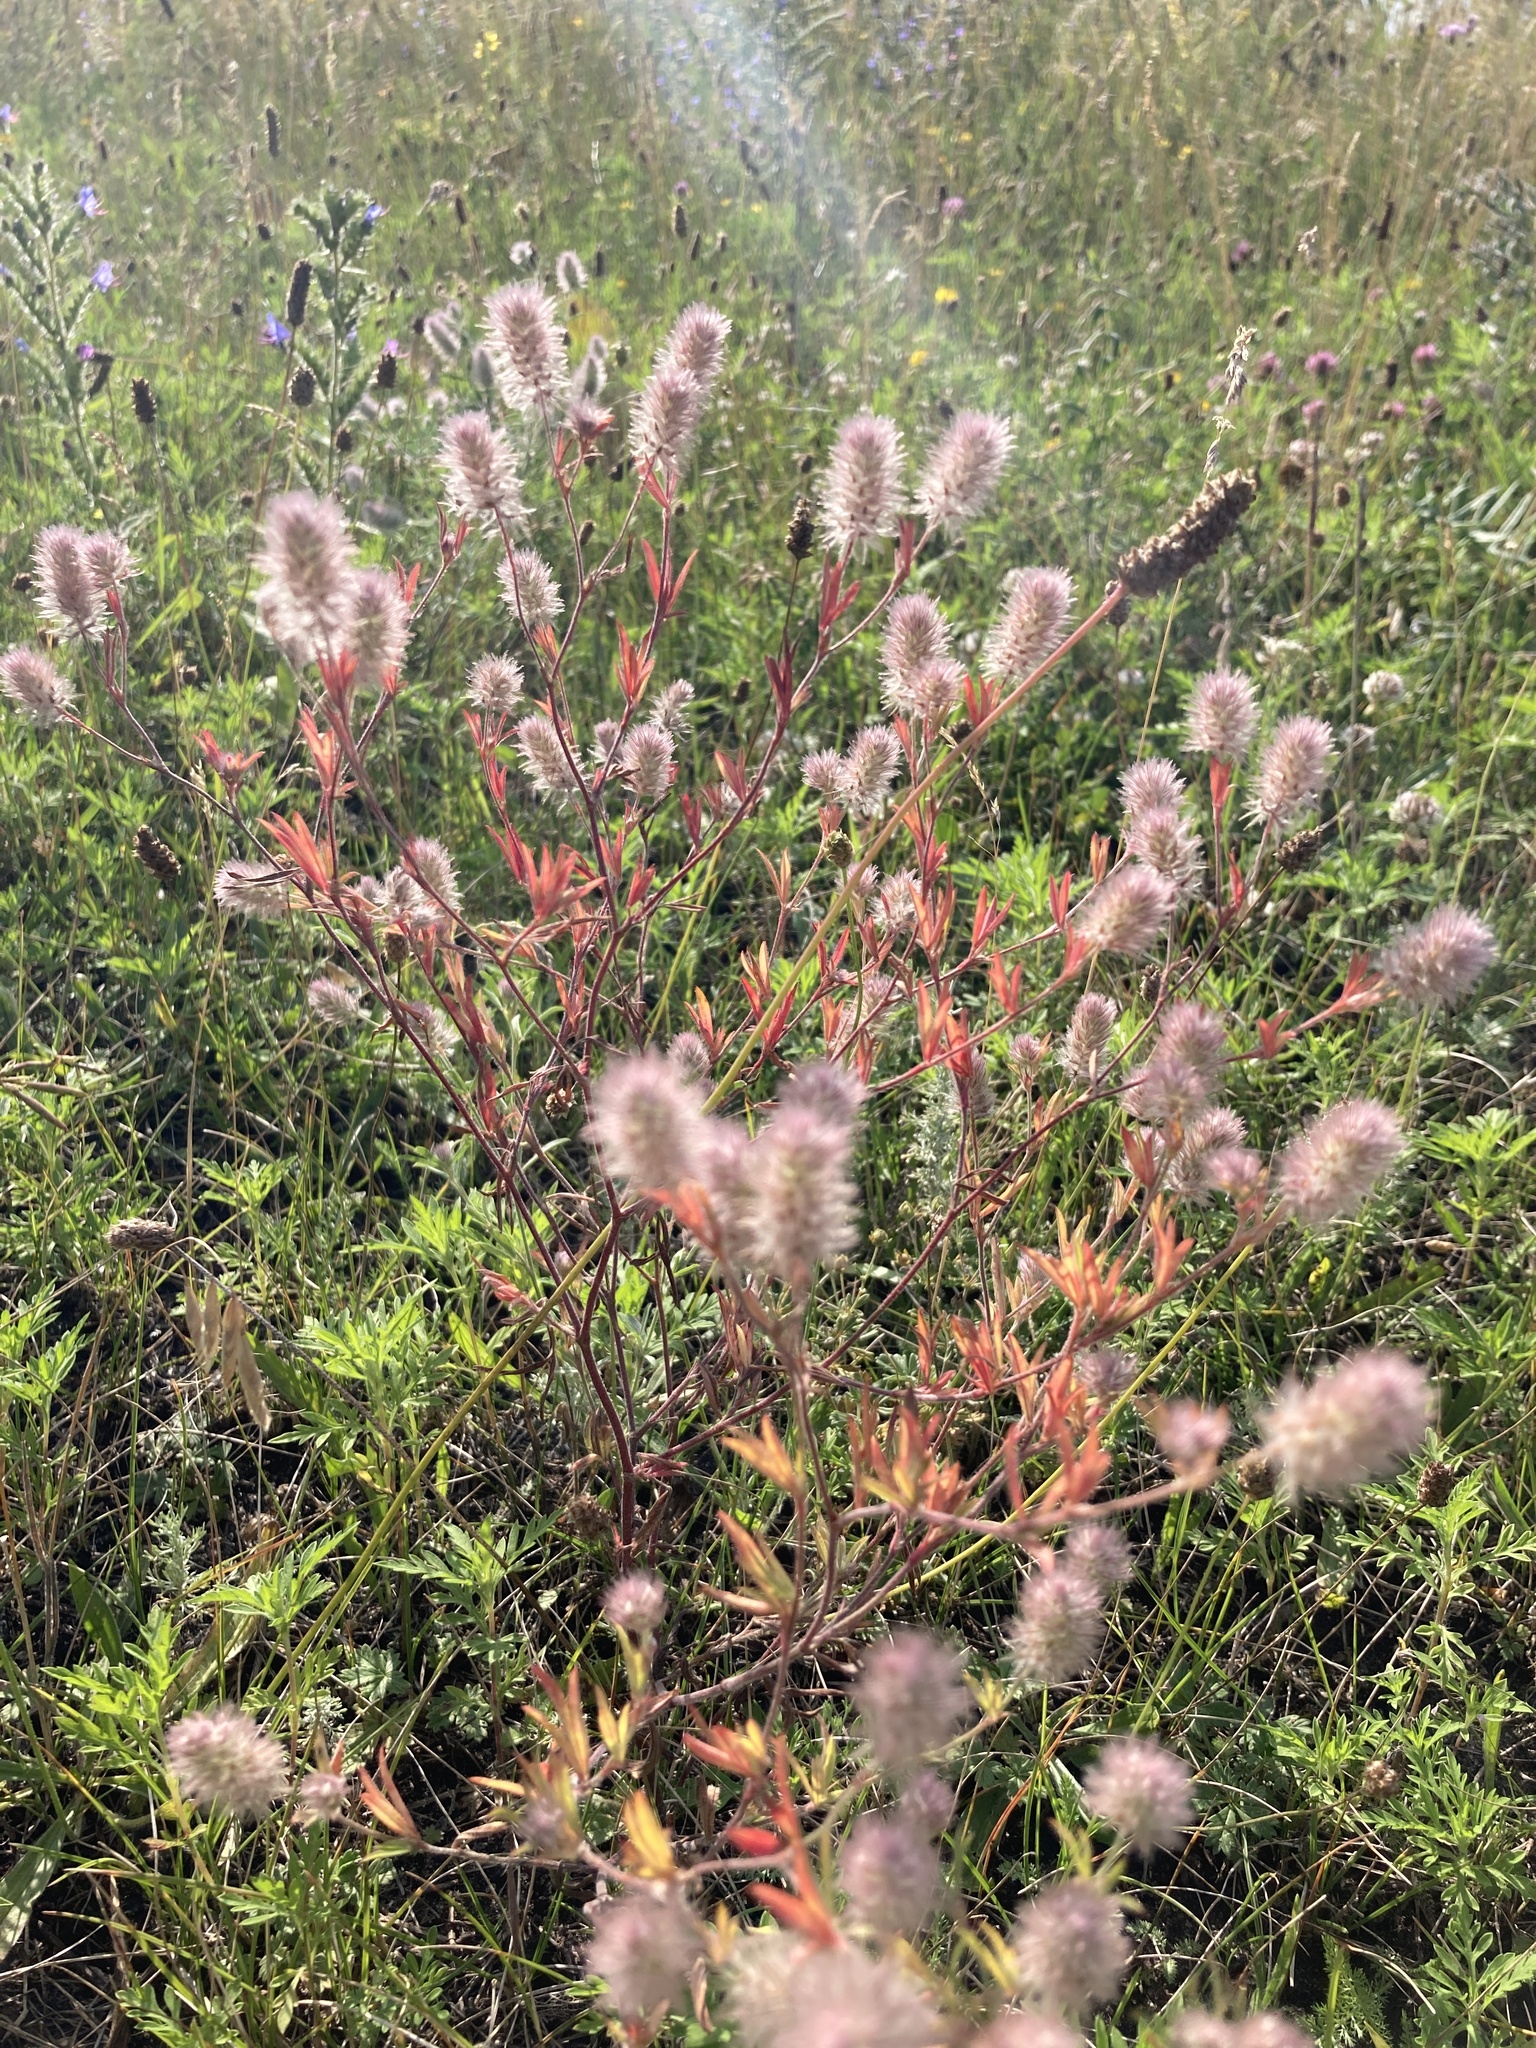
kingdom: Plantae
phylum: Tracheophyta
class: Magnoliopsida
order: Fabales
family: Fabaceae
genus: Trifolium
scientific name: Trifolium arvense
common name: Hare's-foot clover
